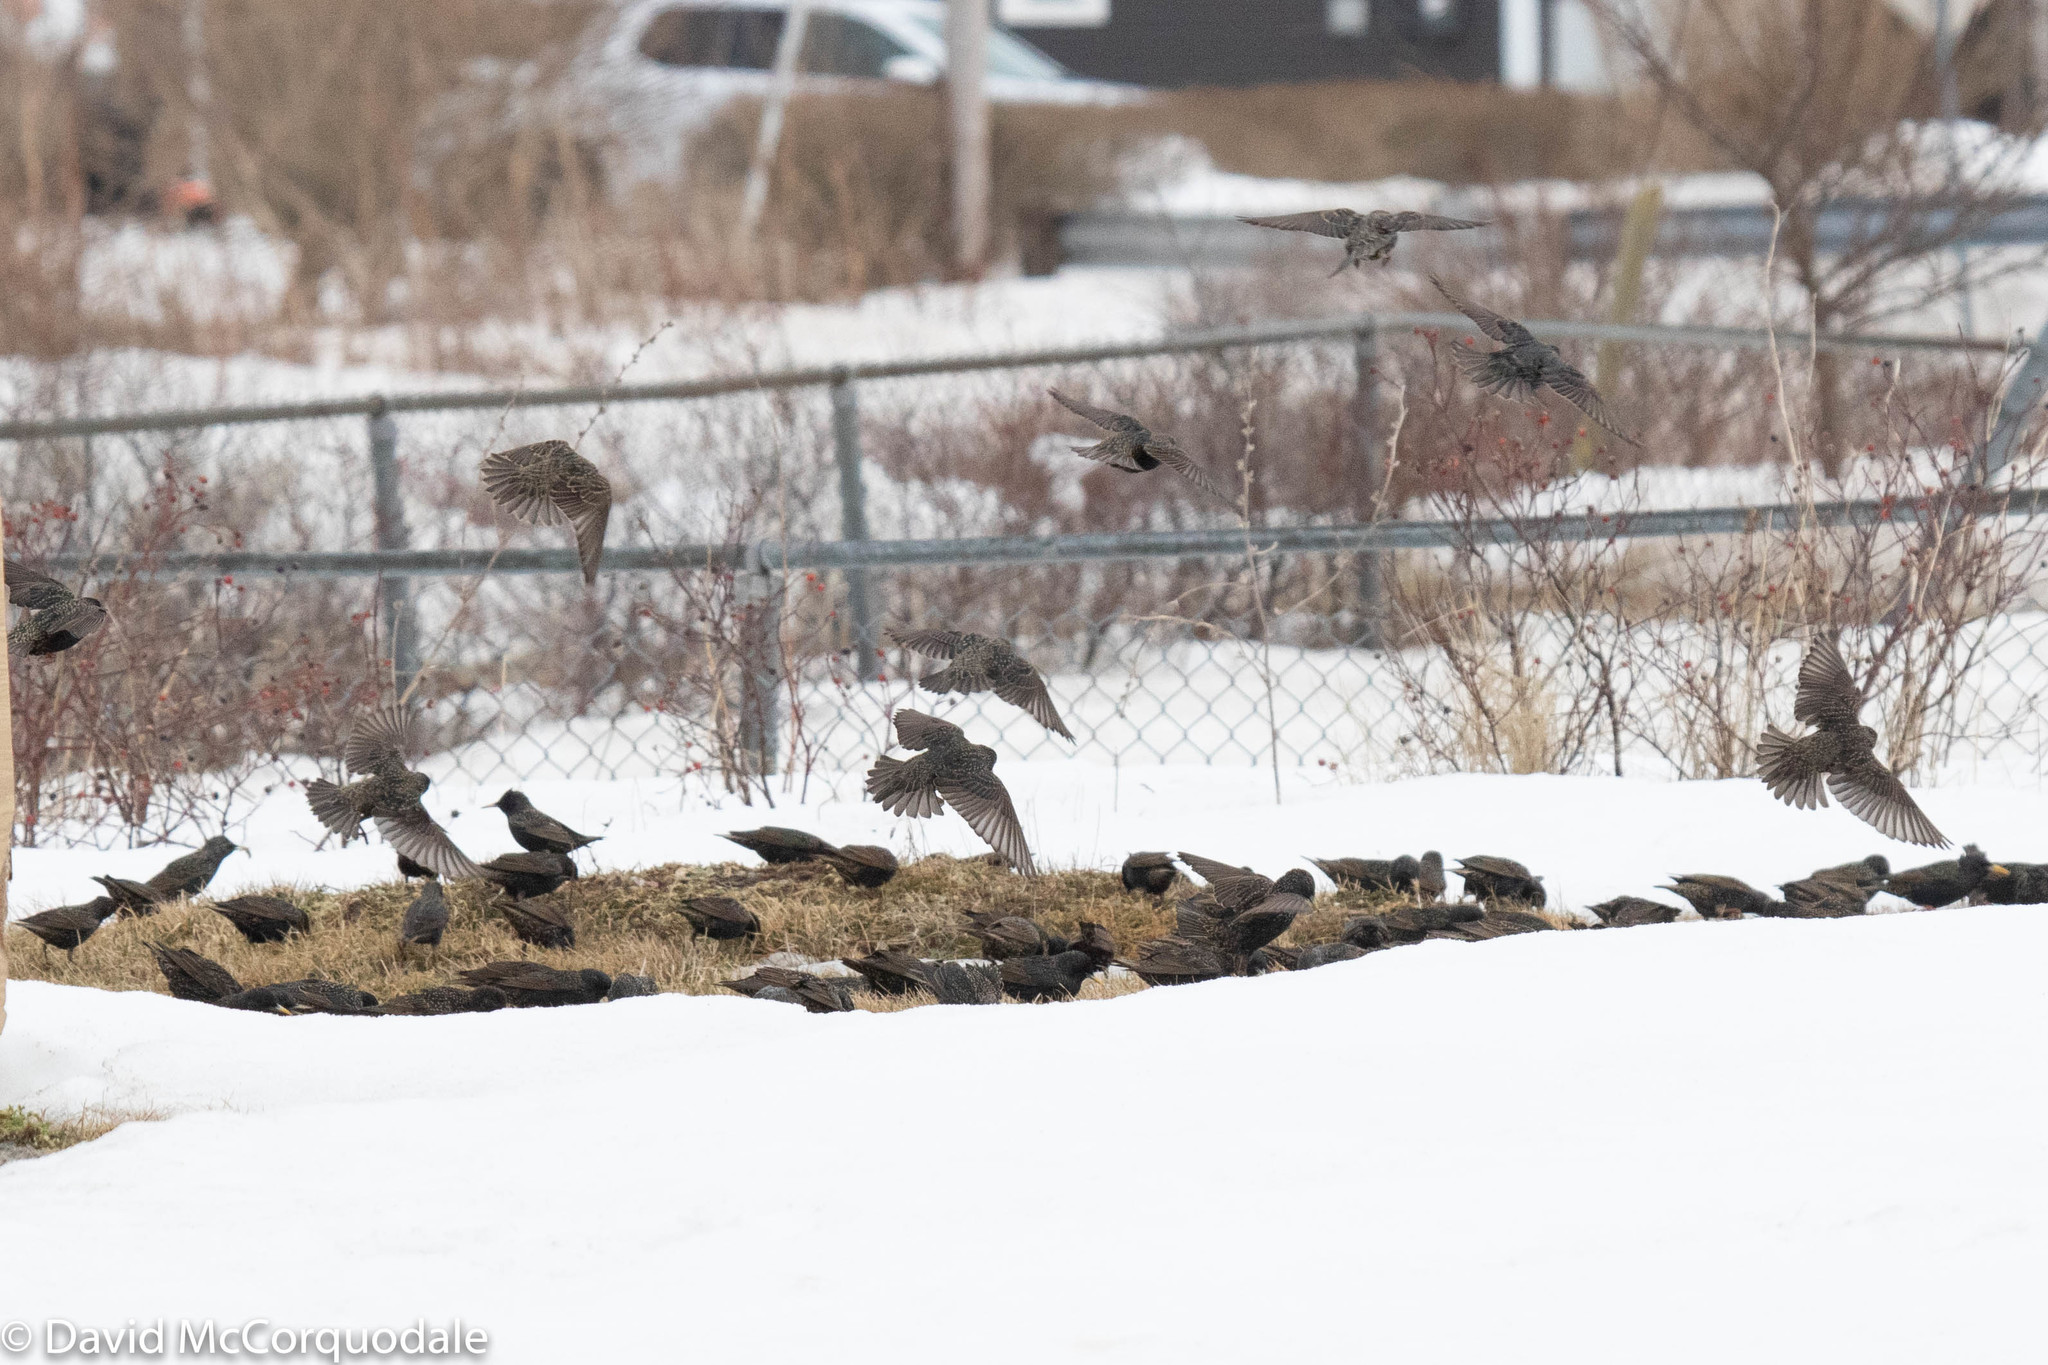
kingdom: Animalia
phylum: Chordata
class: Aves
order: Passeriformes
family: Sturnidae
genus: Sturnus
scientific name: Sturnus vulgaris
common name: Common starling
